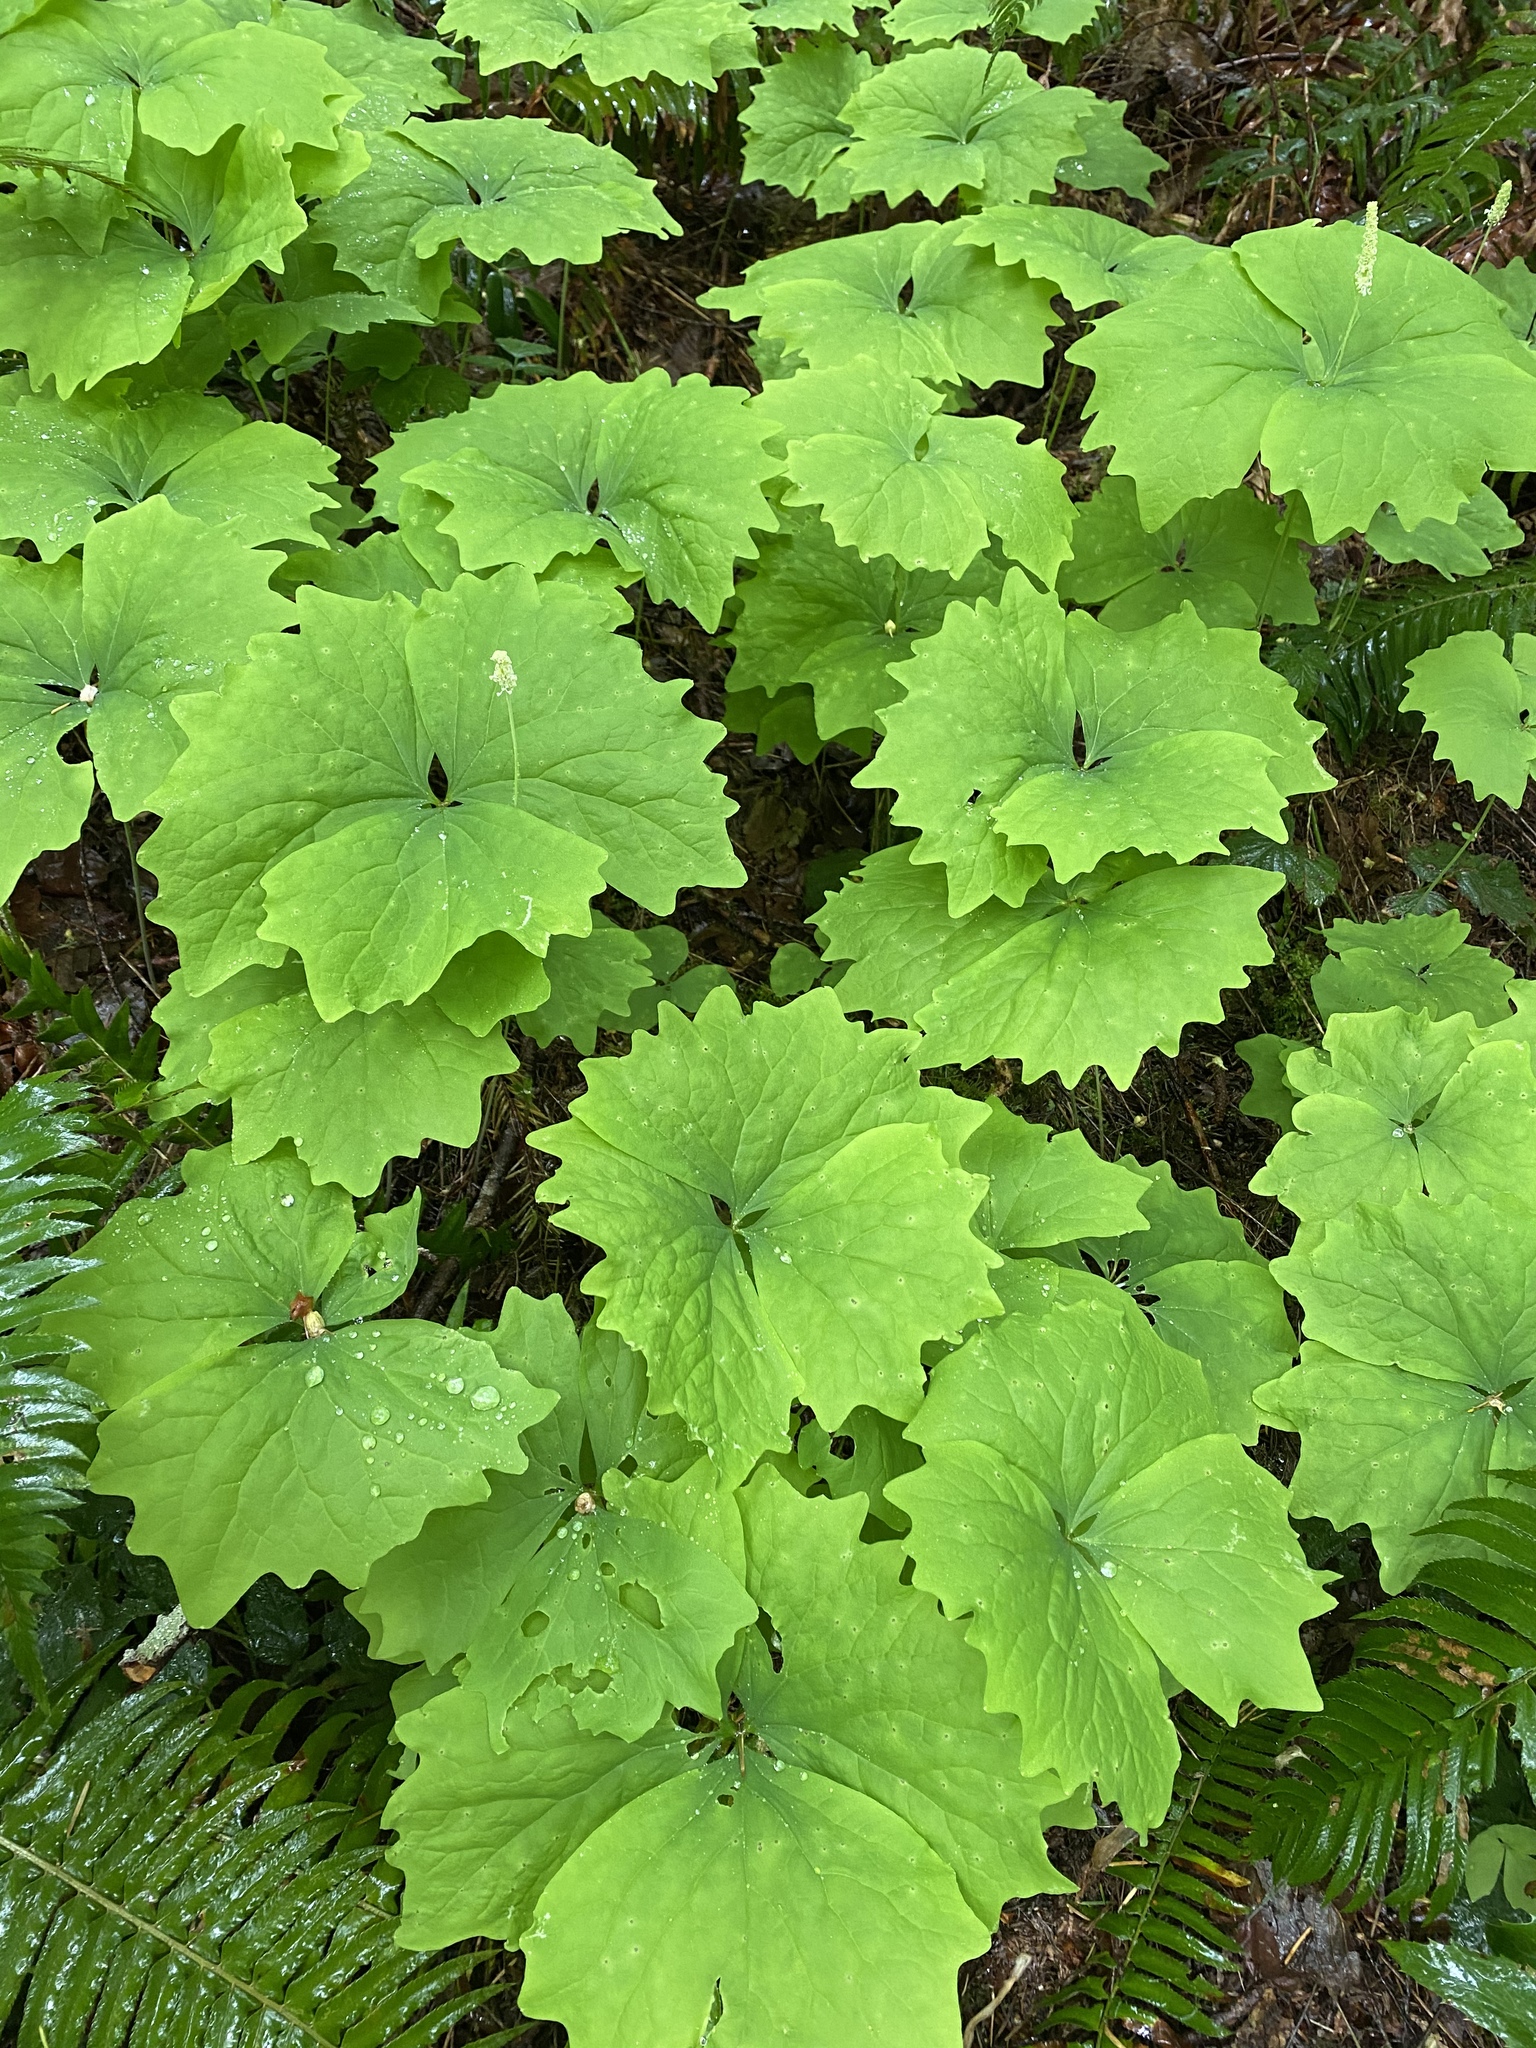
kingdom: Plantae
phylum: Tracheophyta
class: Magnoliopsida
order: Ranunculales
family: Berberidaceae
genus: Achlys
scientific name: Achlys triphylla
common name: Vanilla-leaf
